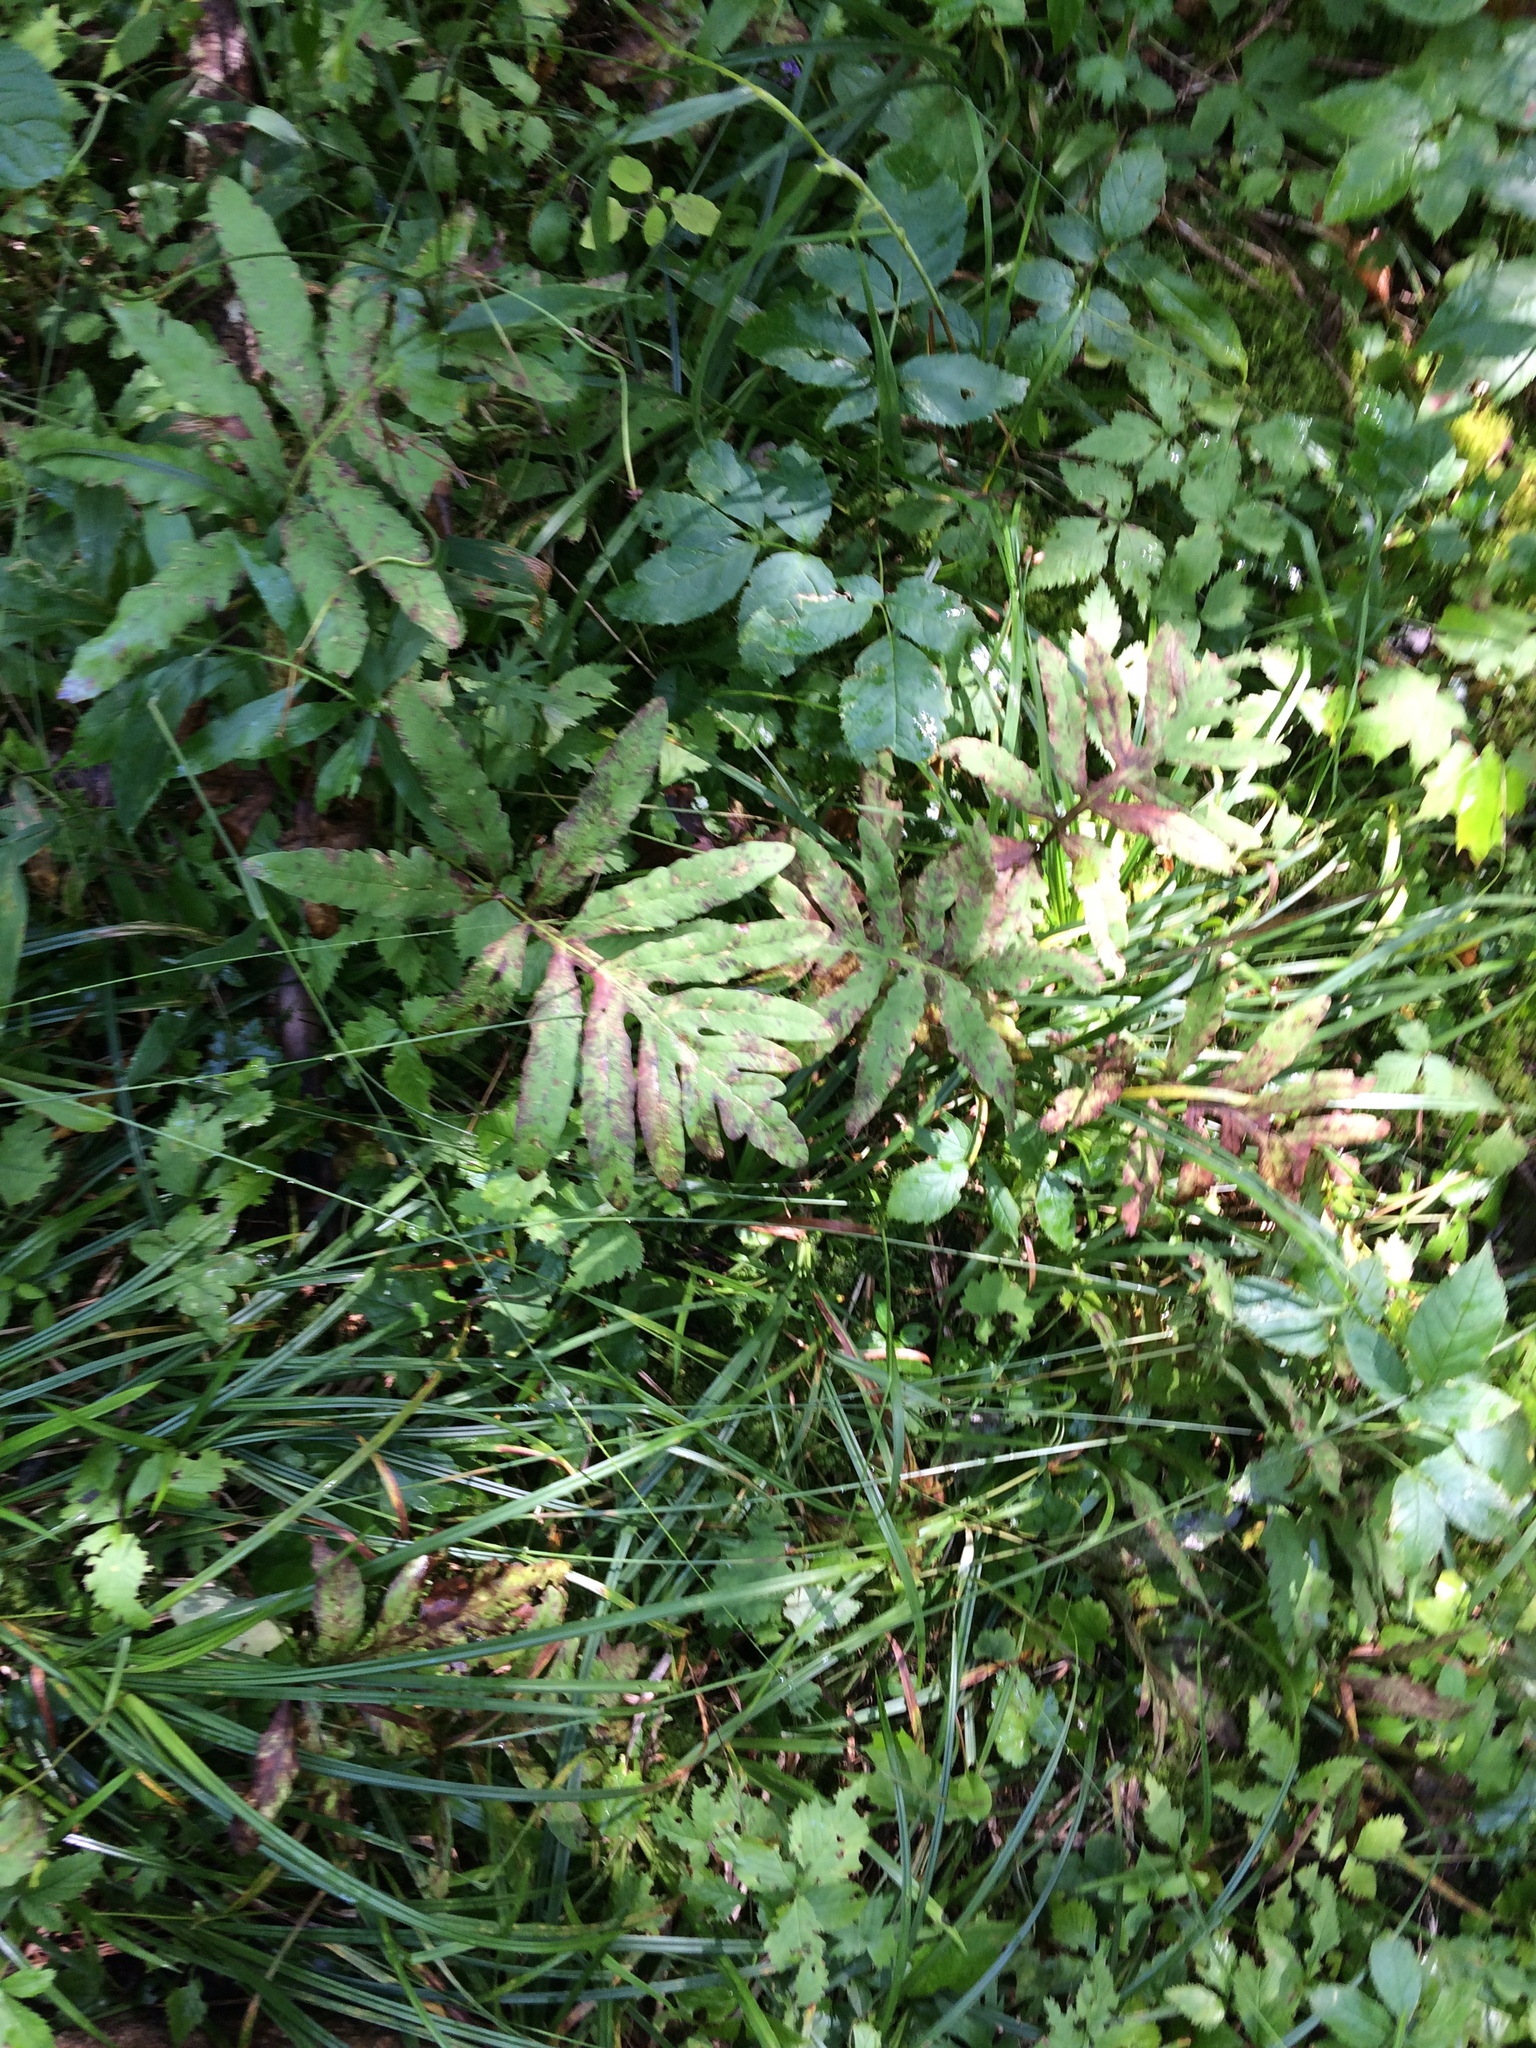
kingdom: Plantae
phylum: Tracheophyta
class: Polypodiopsida
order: Polypodiales
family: Onocleaceae
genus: Onoclea
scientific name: Onoclea sensibilis
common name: Sensitive fern
